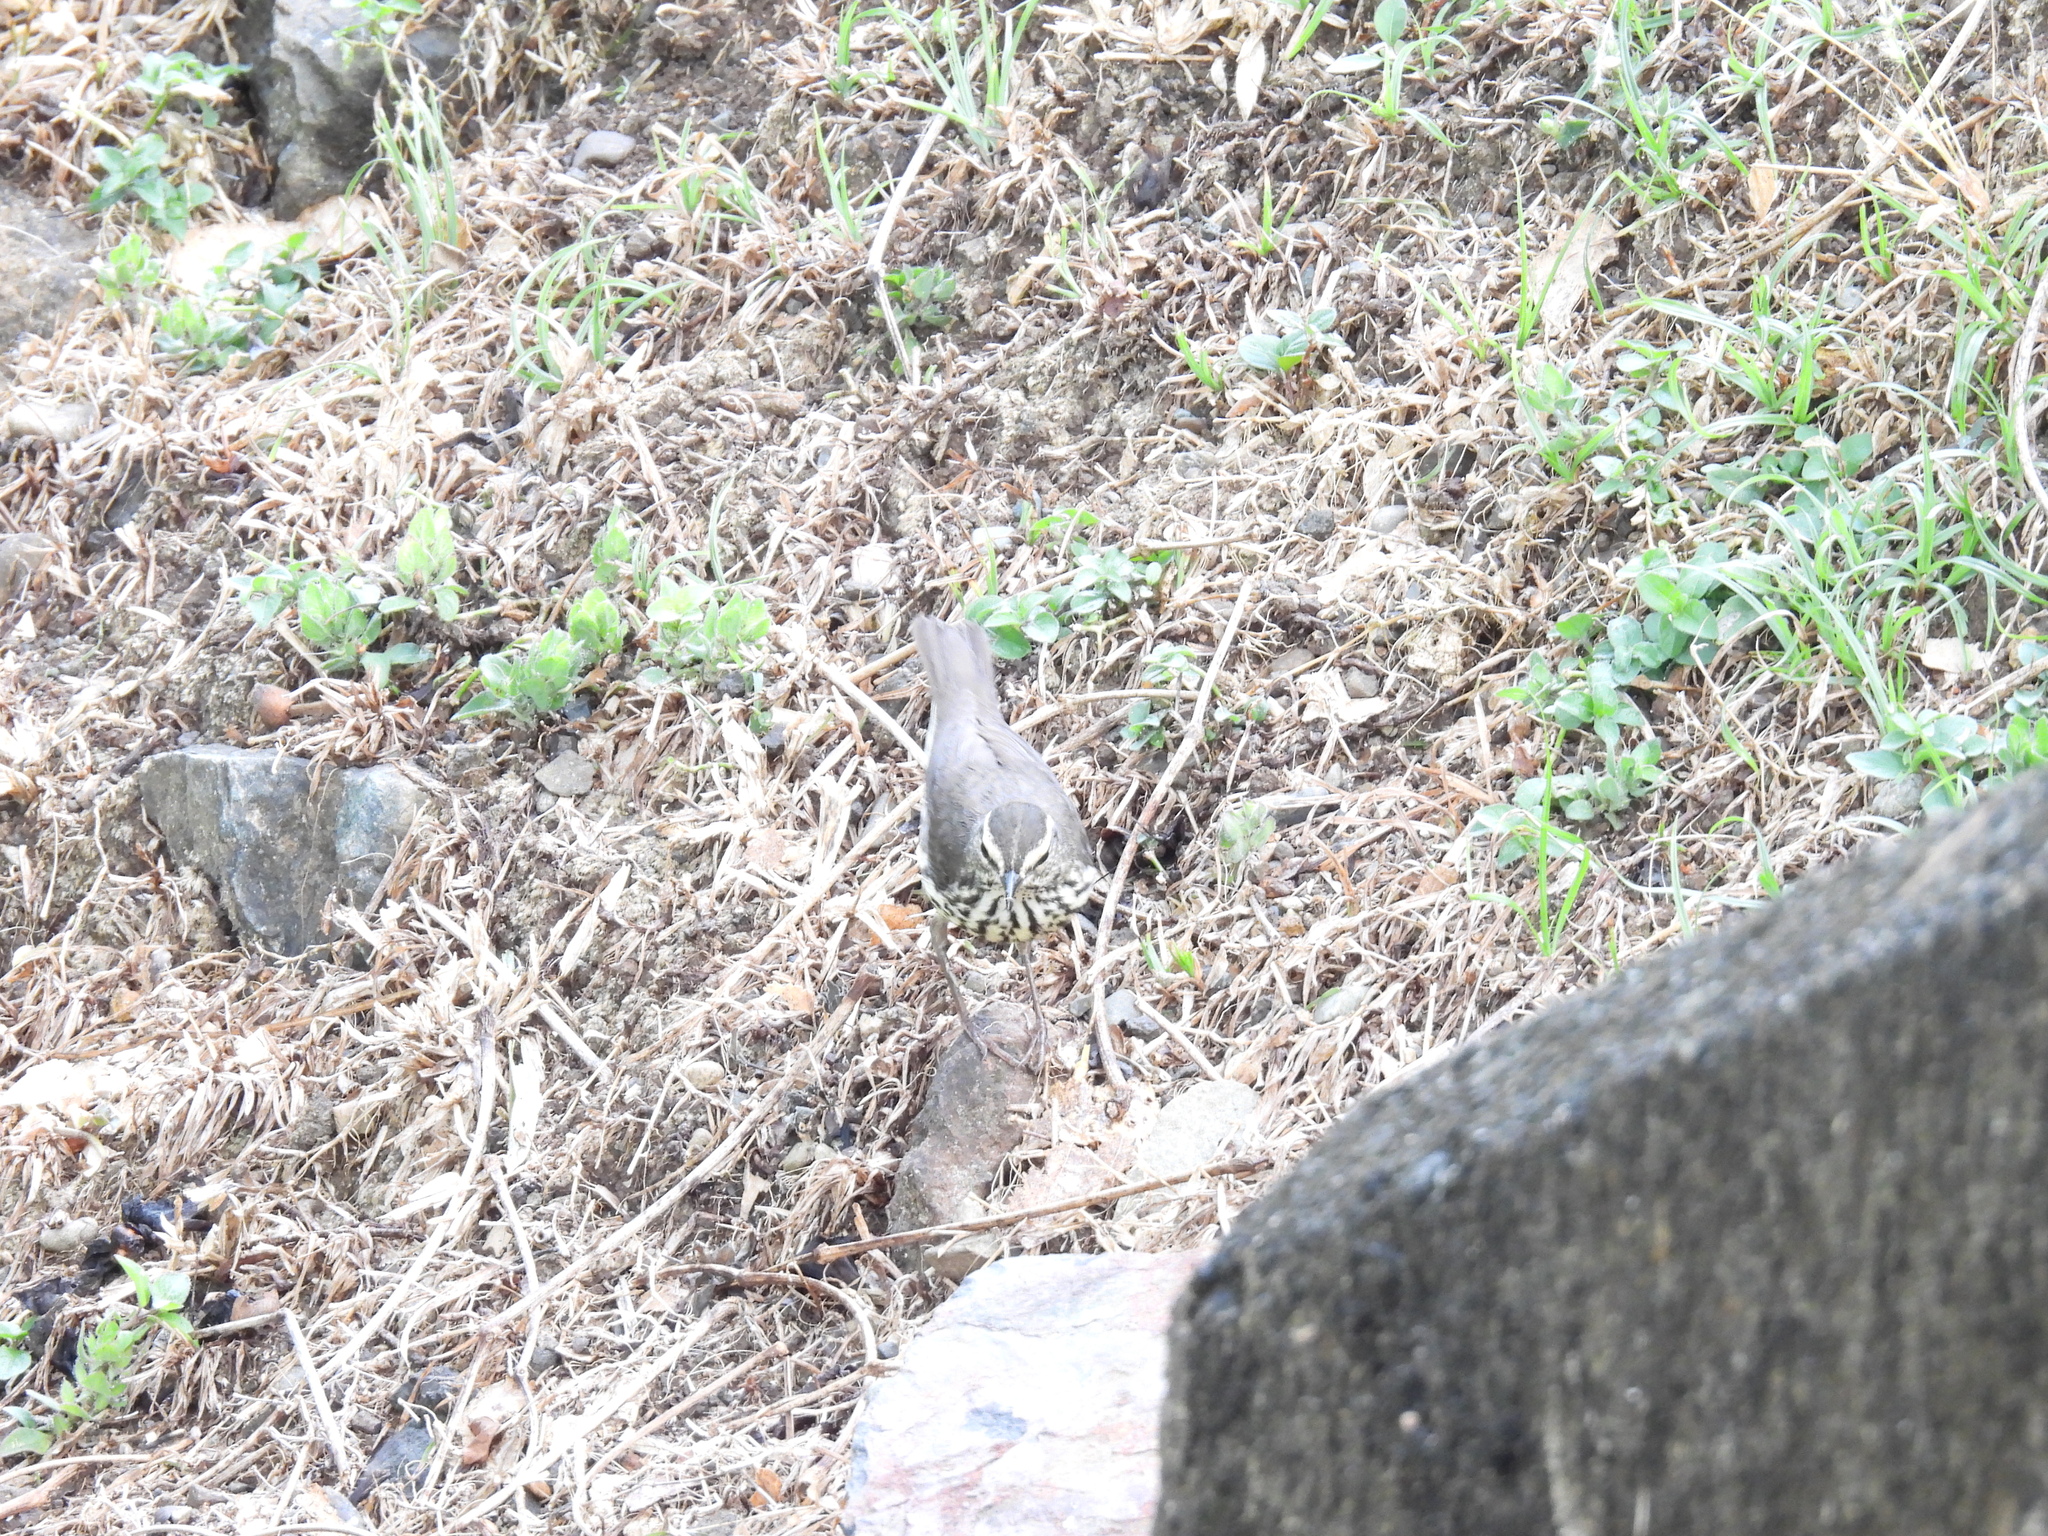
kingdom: Animalia
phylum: Chordata
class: Aves
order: Passeriformes
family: Parulidae
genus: Parkesia
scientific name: Parkesia noveboracensis
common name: Northern waterthrush
